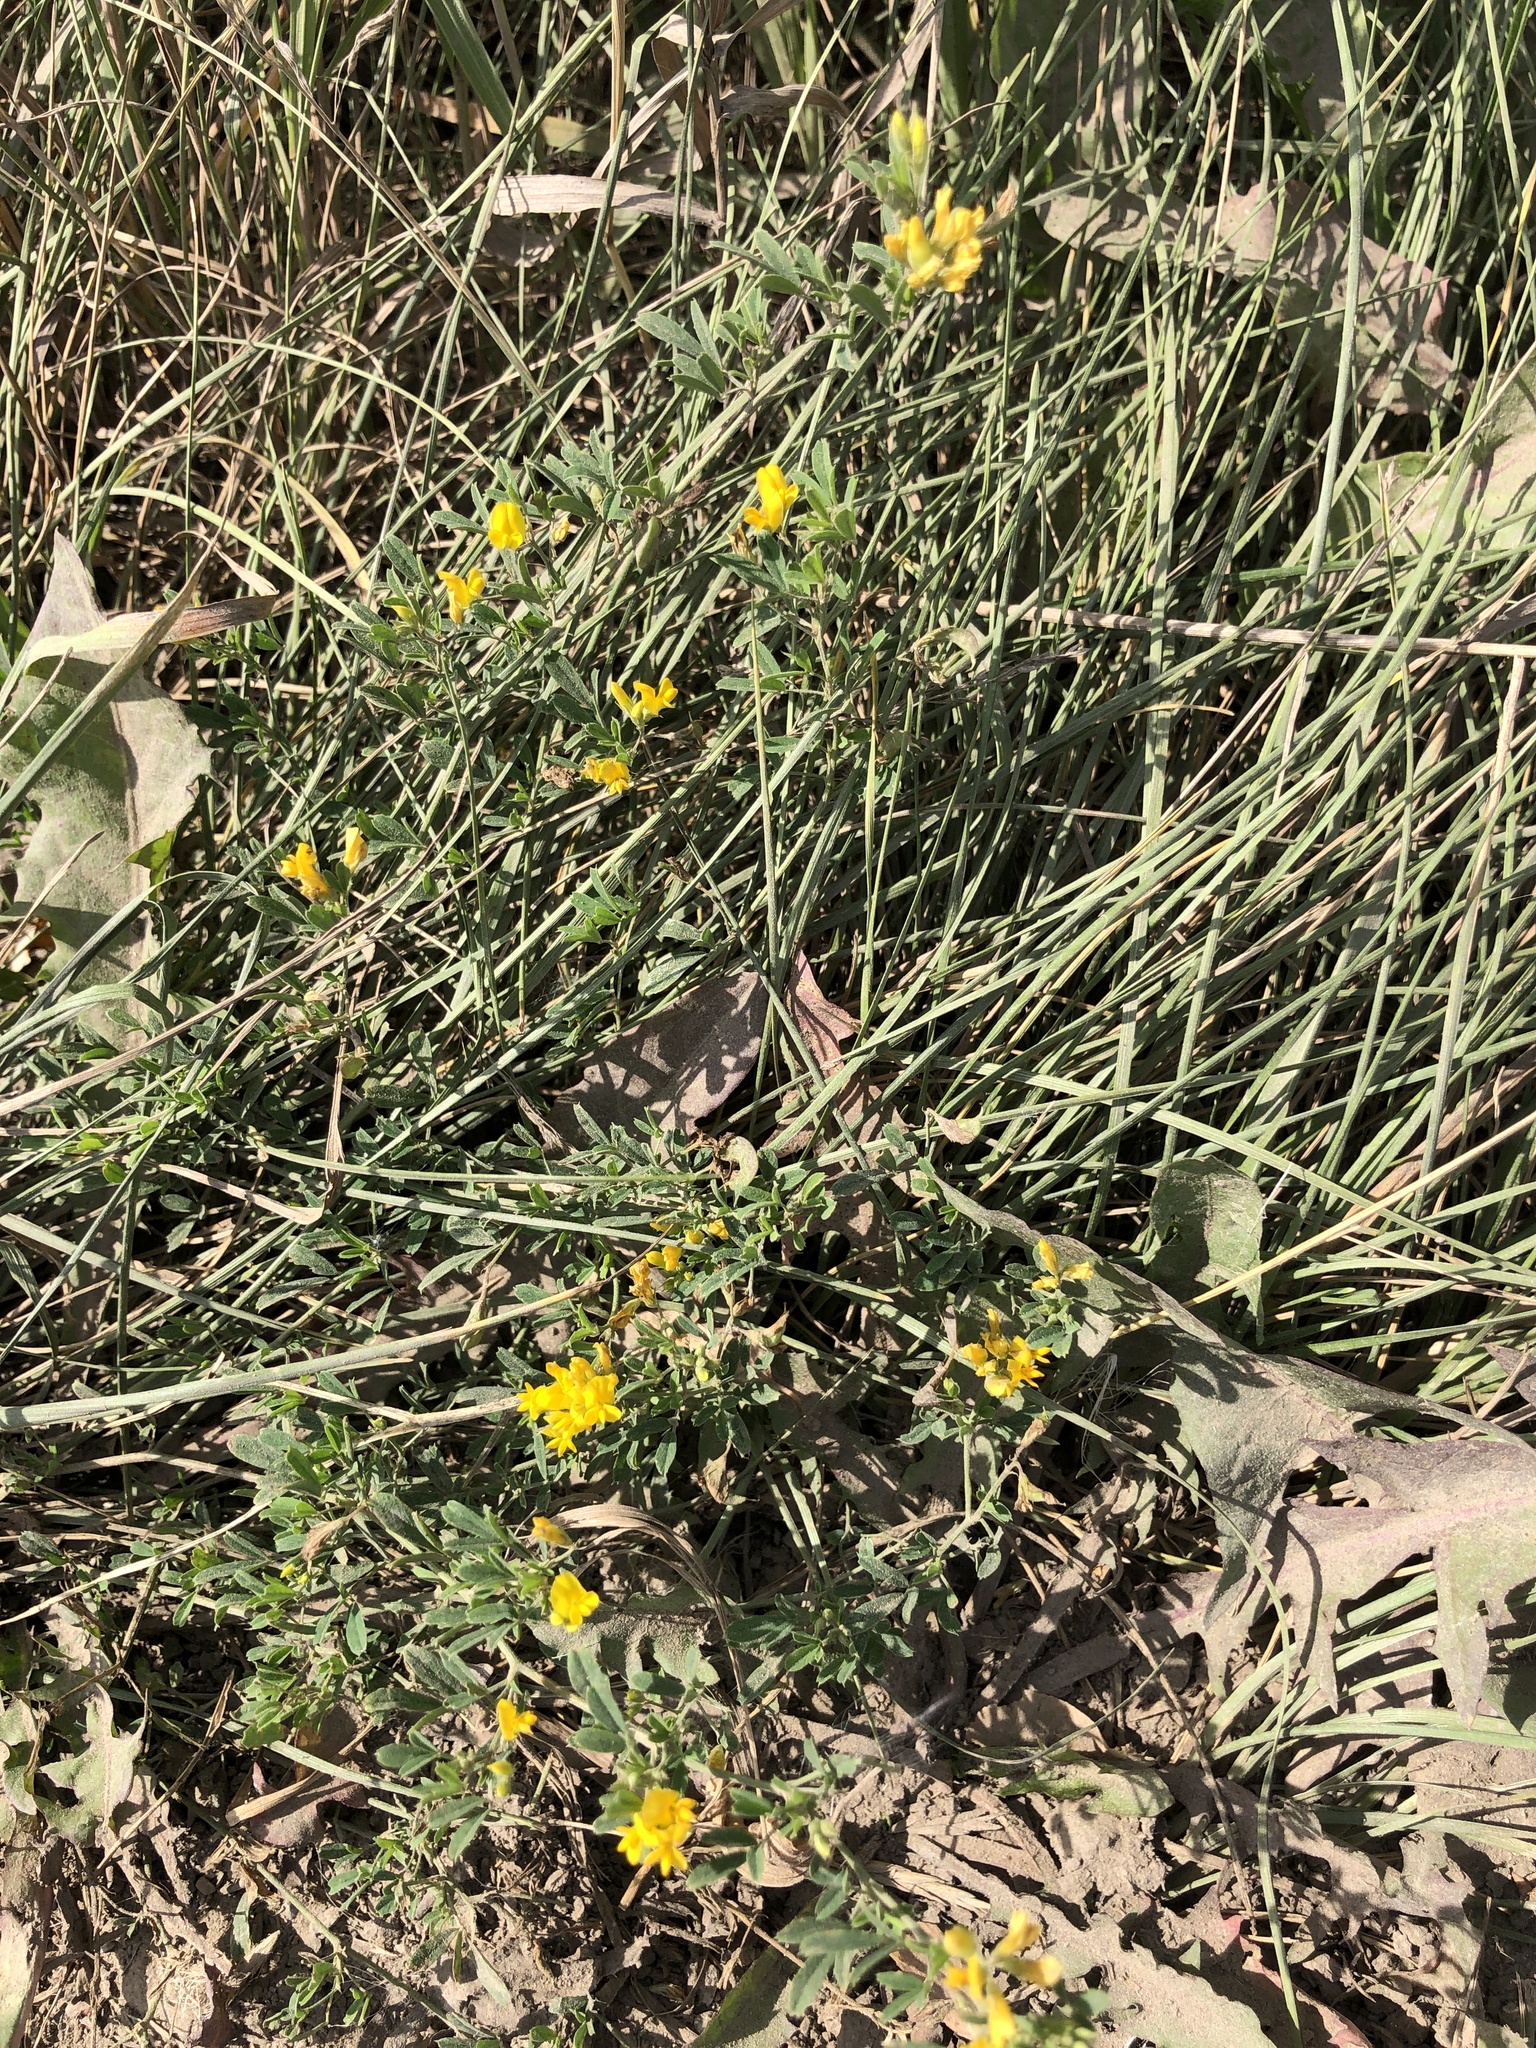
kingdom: Plantae
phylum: Tracheophyta
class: Magnoliopsida
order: Fabales
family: Fabaceae
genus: Medicago
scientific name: Medicago falcata
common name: Sickle medick
